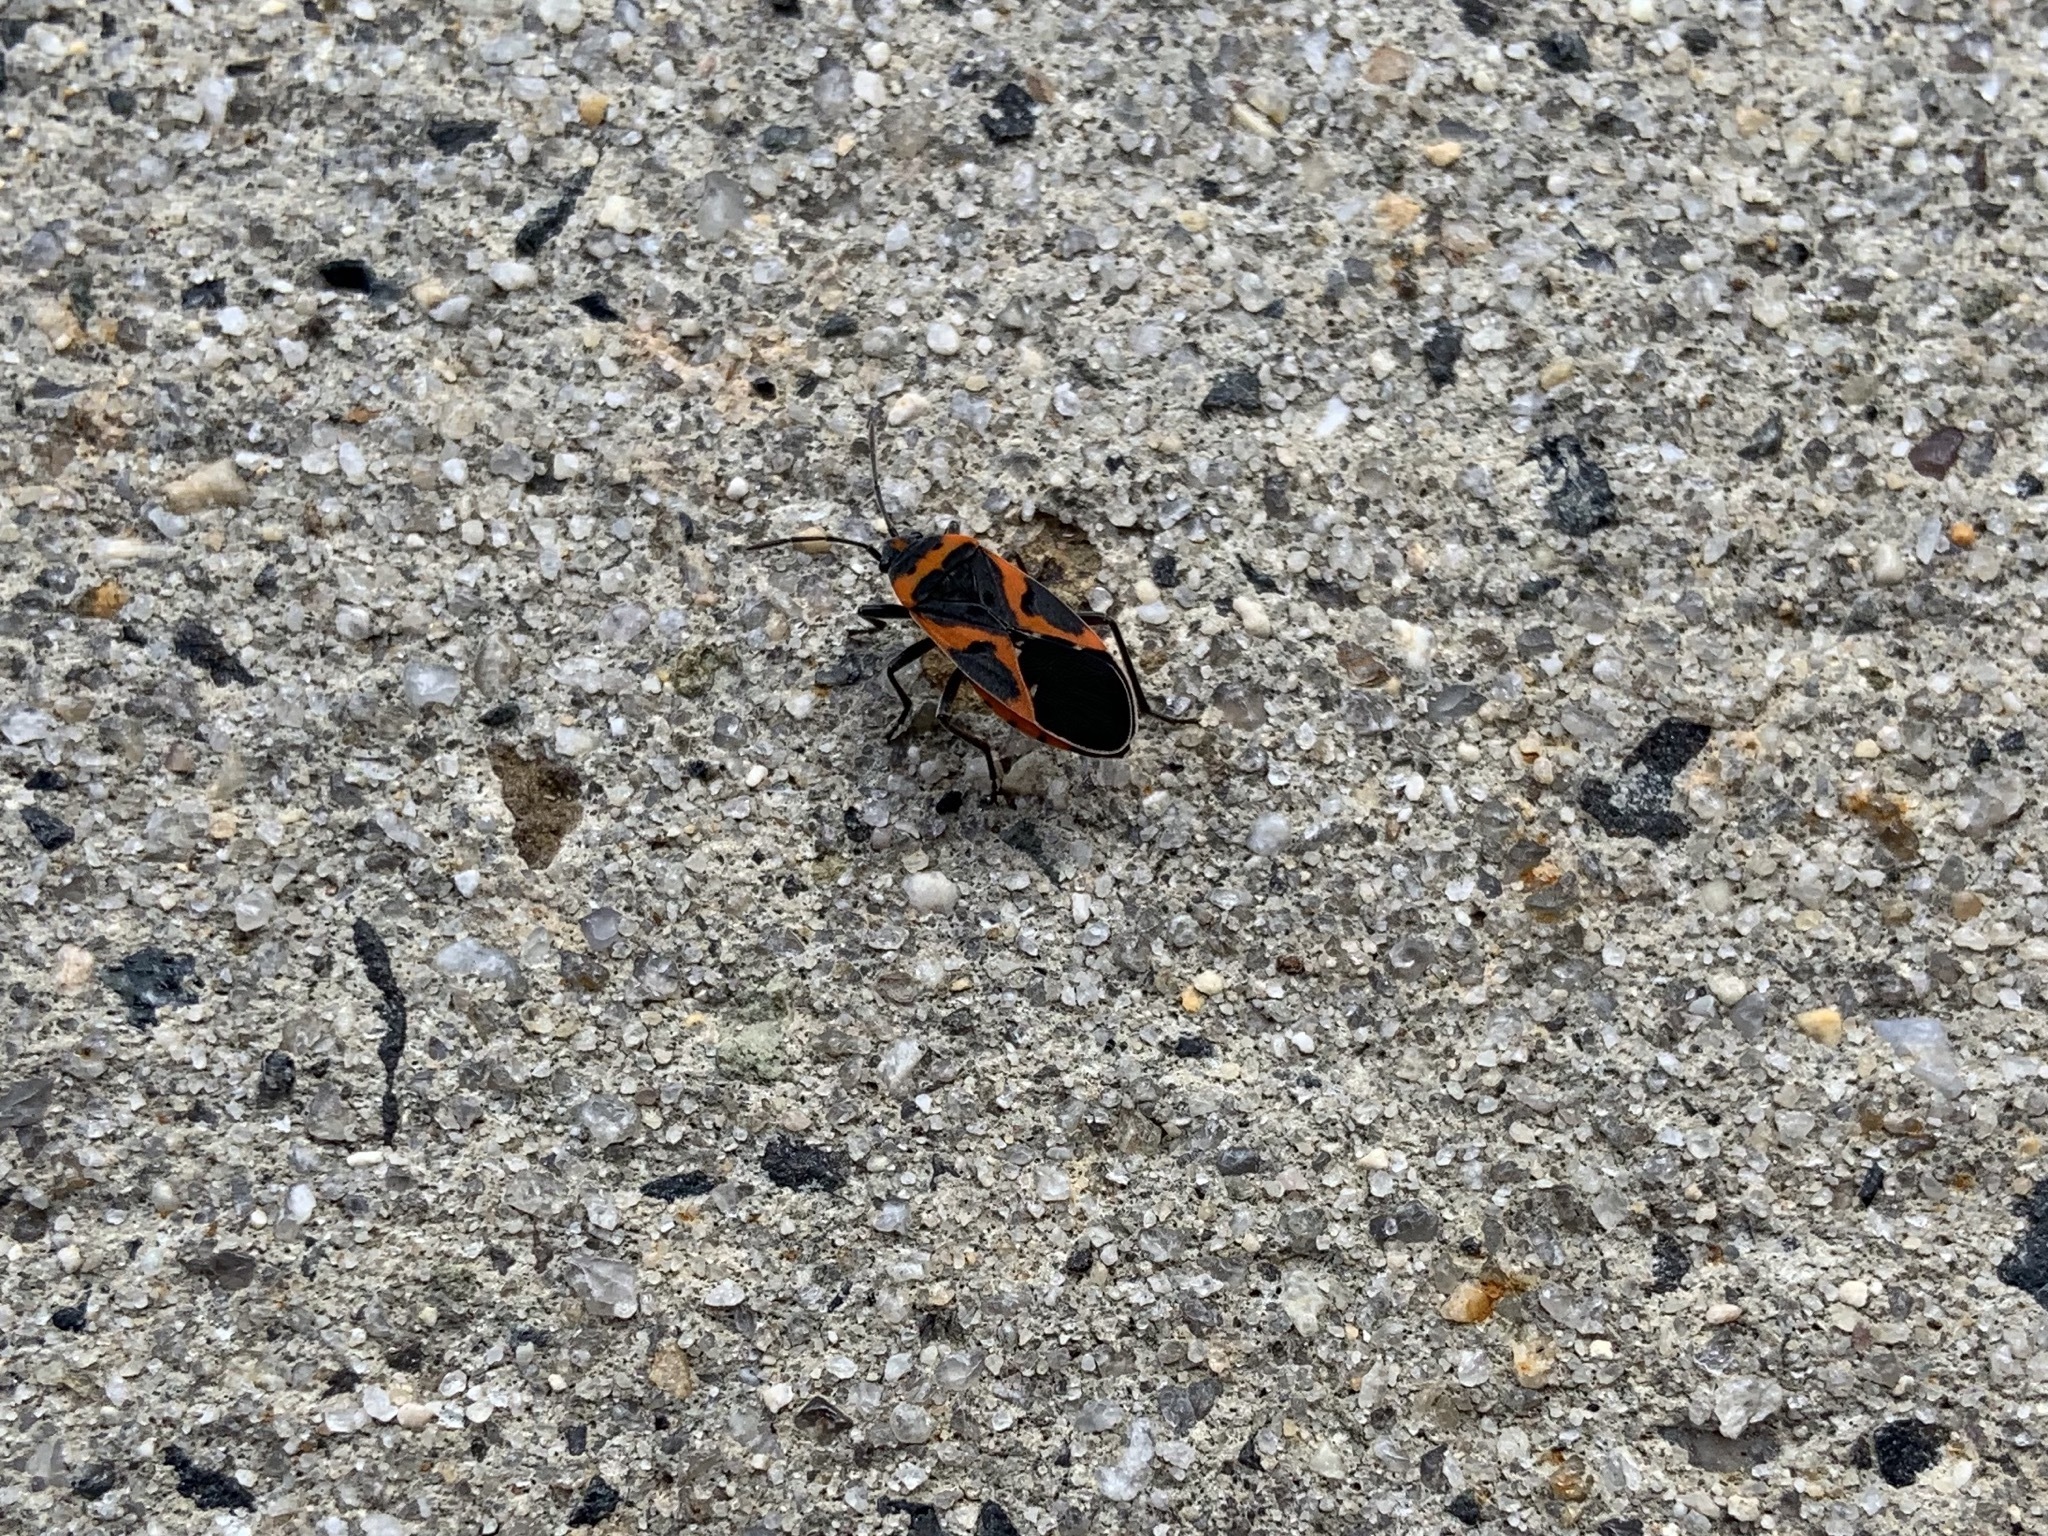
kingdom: Animalia
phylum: Arthropoda
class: Insecta
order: Hemiptera
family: Lygaeidae
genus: Lygaeus
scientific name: Lygaeus kalmii
